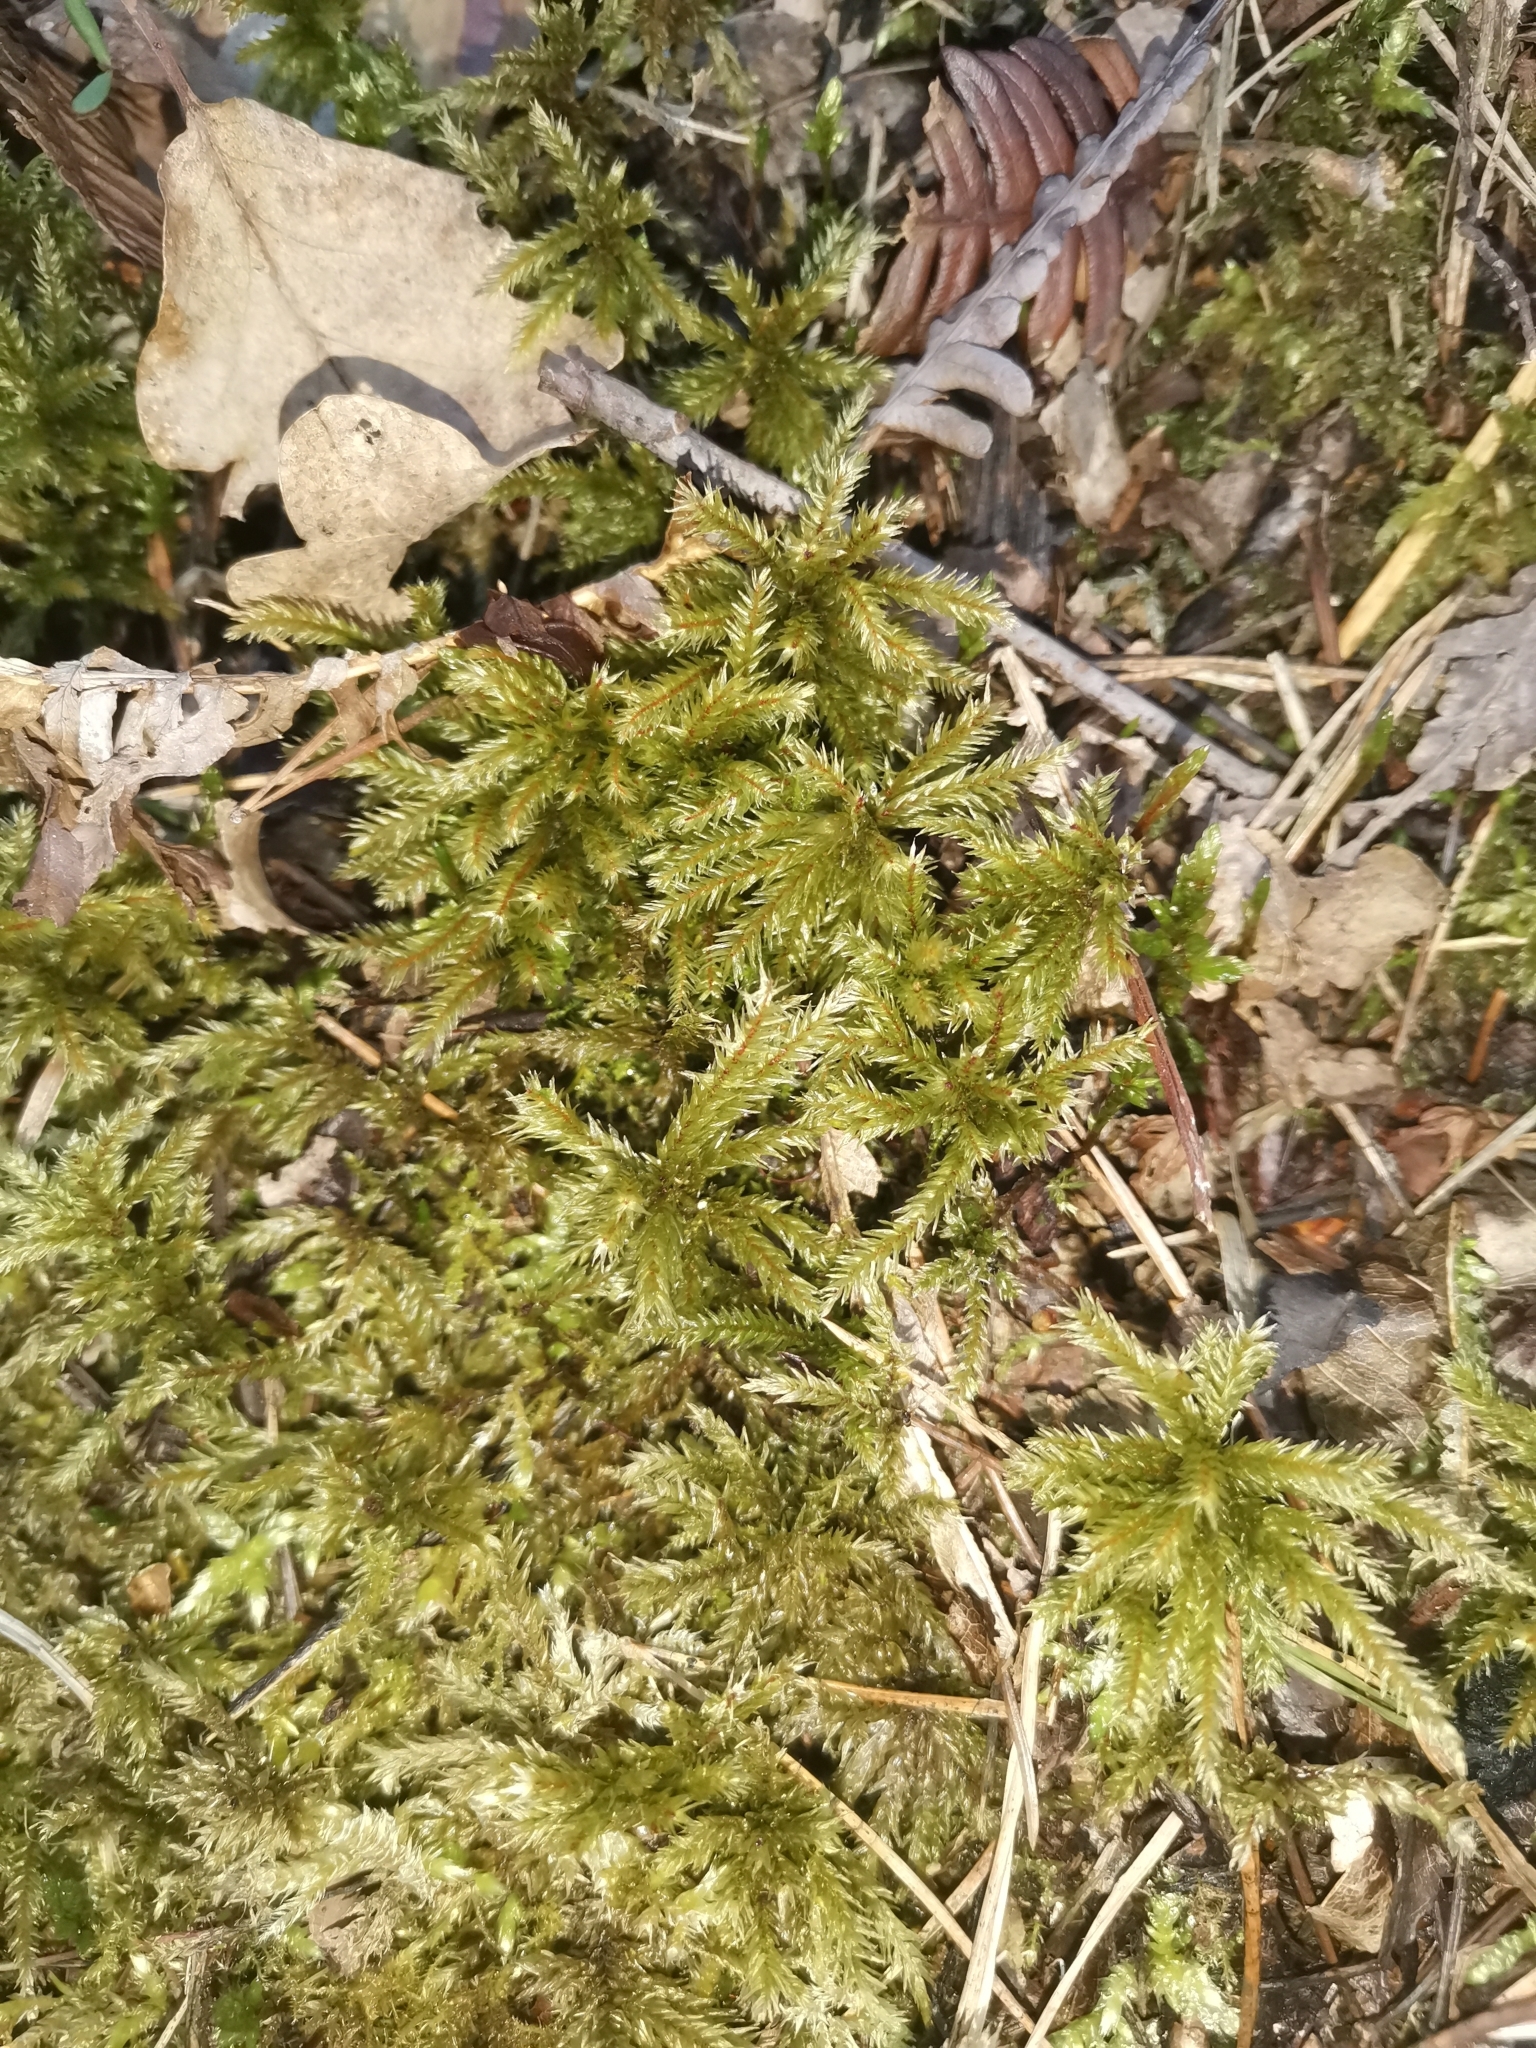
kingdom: Plantae
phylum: Bryophyta
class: Bryopsida
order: Hypnales
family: Climaciaceae
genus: Climacium
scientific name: Climacium dendroides
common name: Northern tree moss
